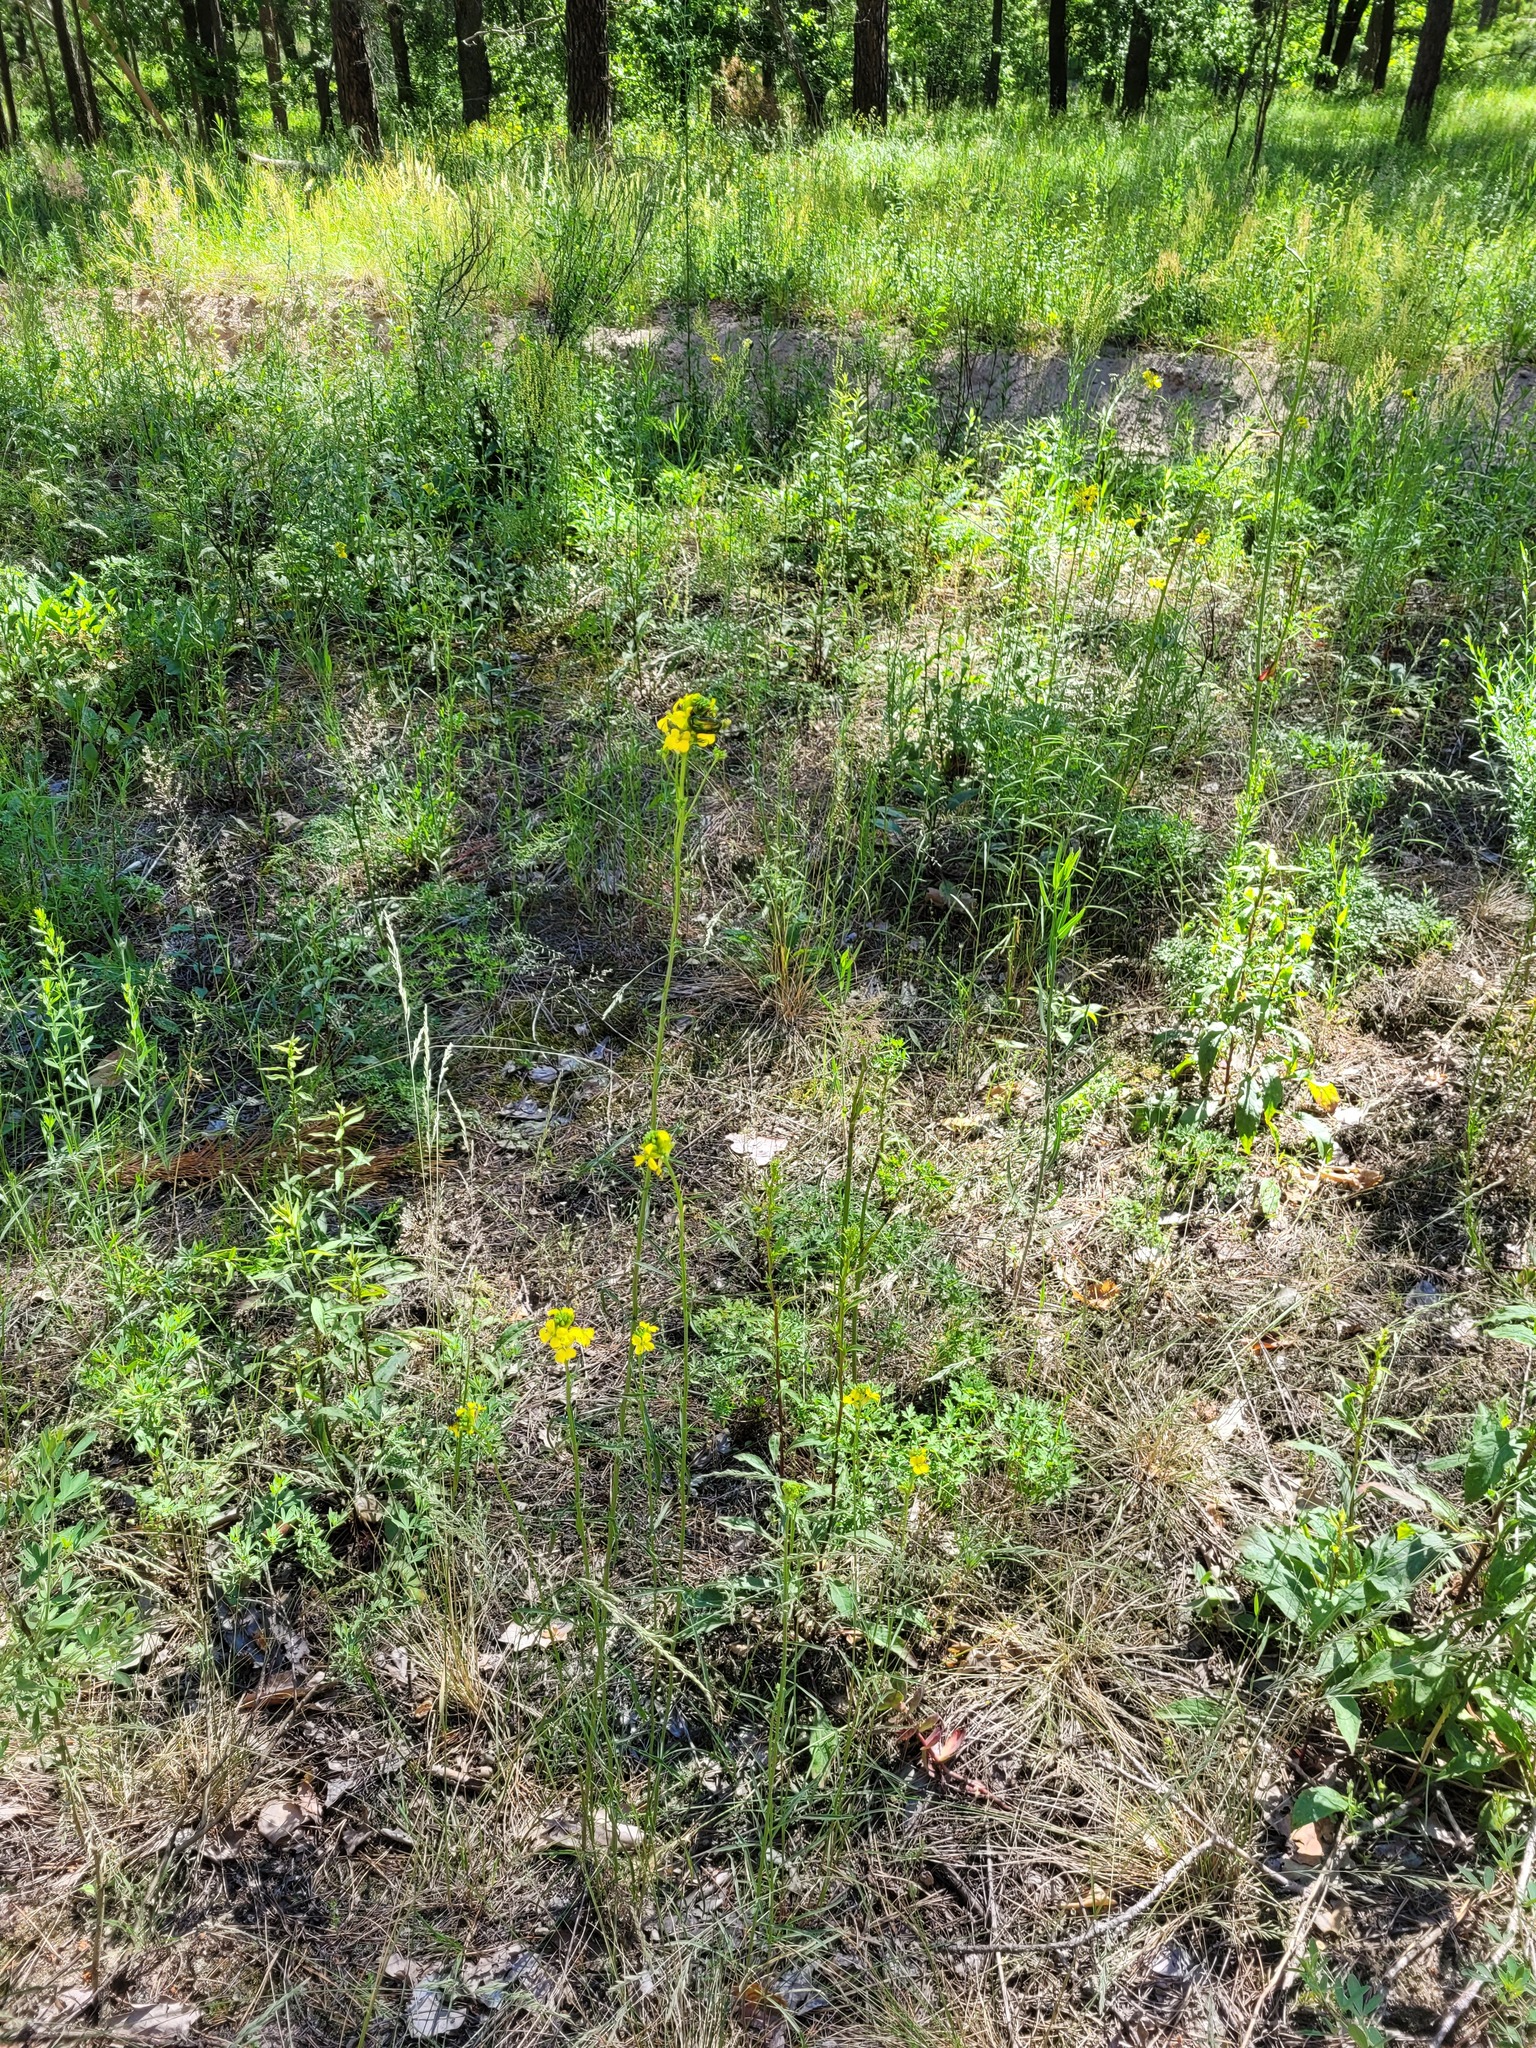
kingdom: Plantae
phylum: Tracheophyta
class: Magnoliopsida
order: Brassicales
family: Brassicaceae
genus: Erysimum
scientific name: Erysimum quadrangulum
